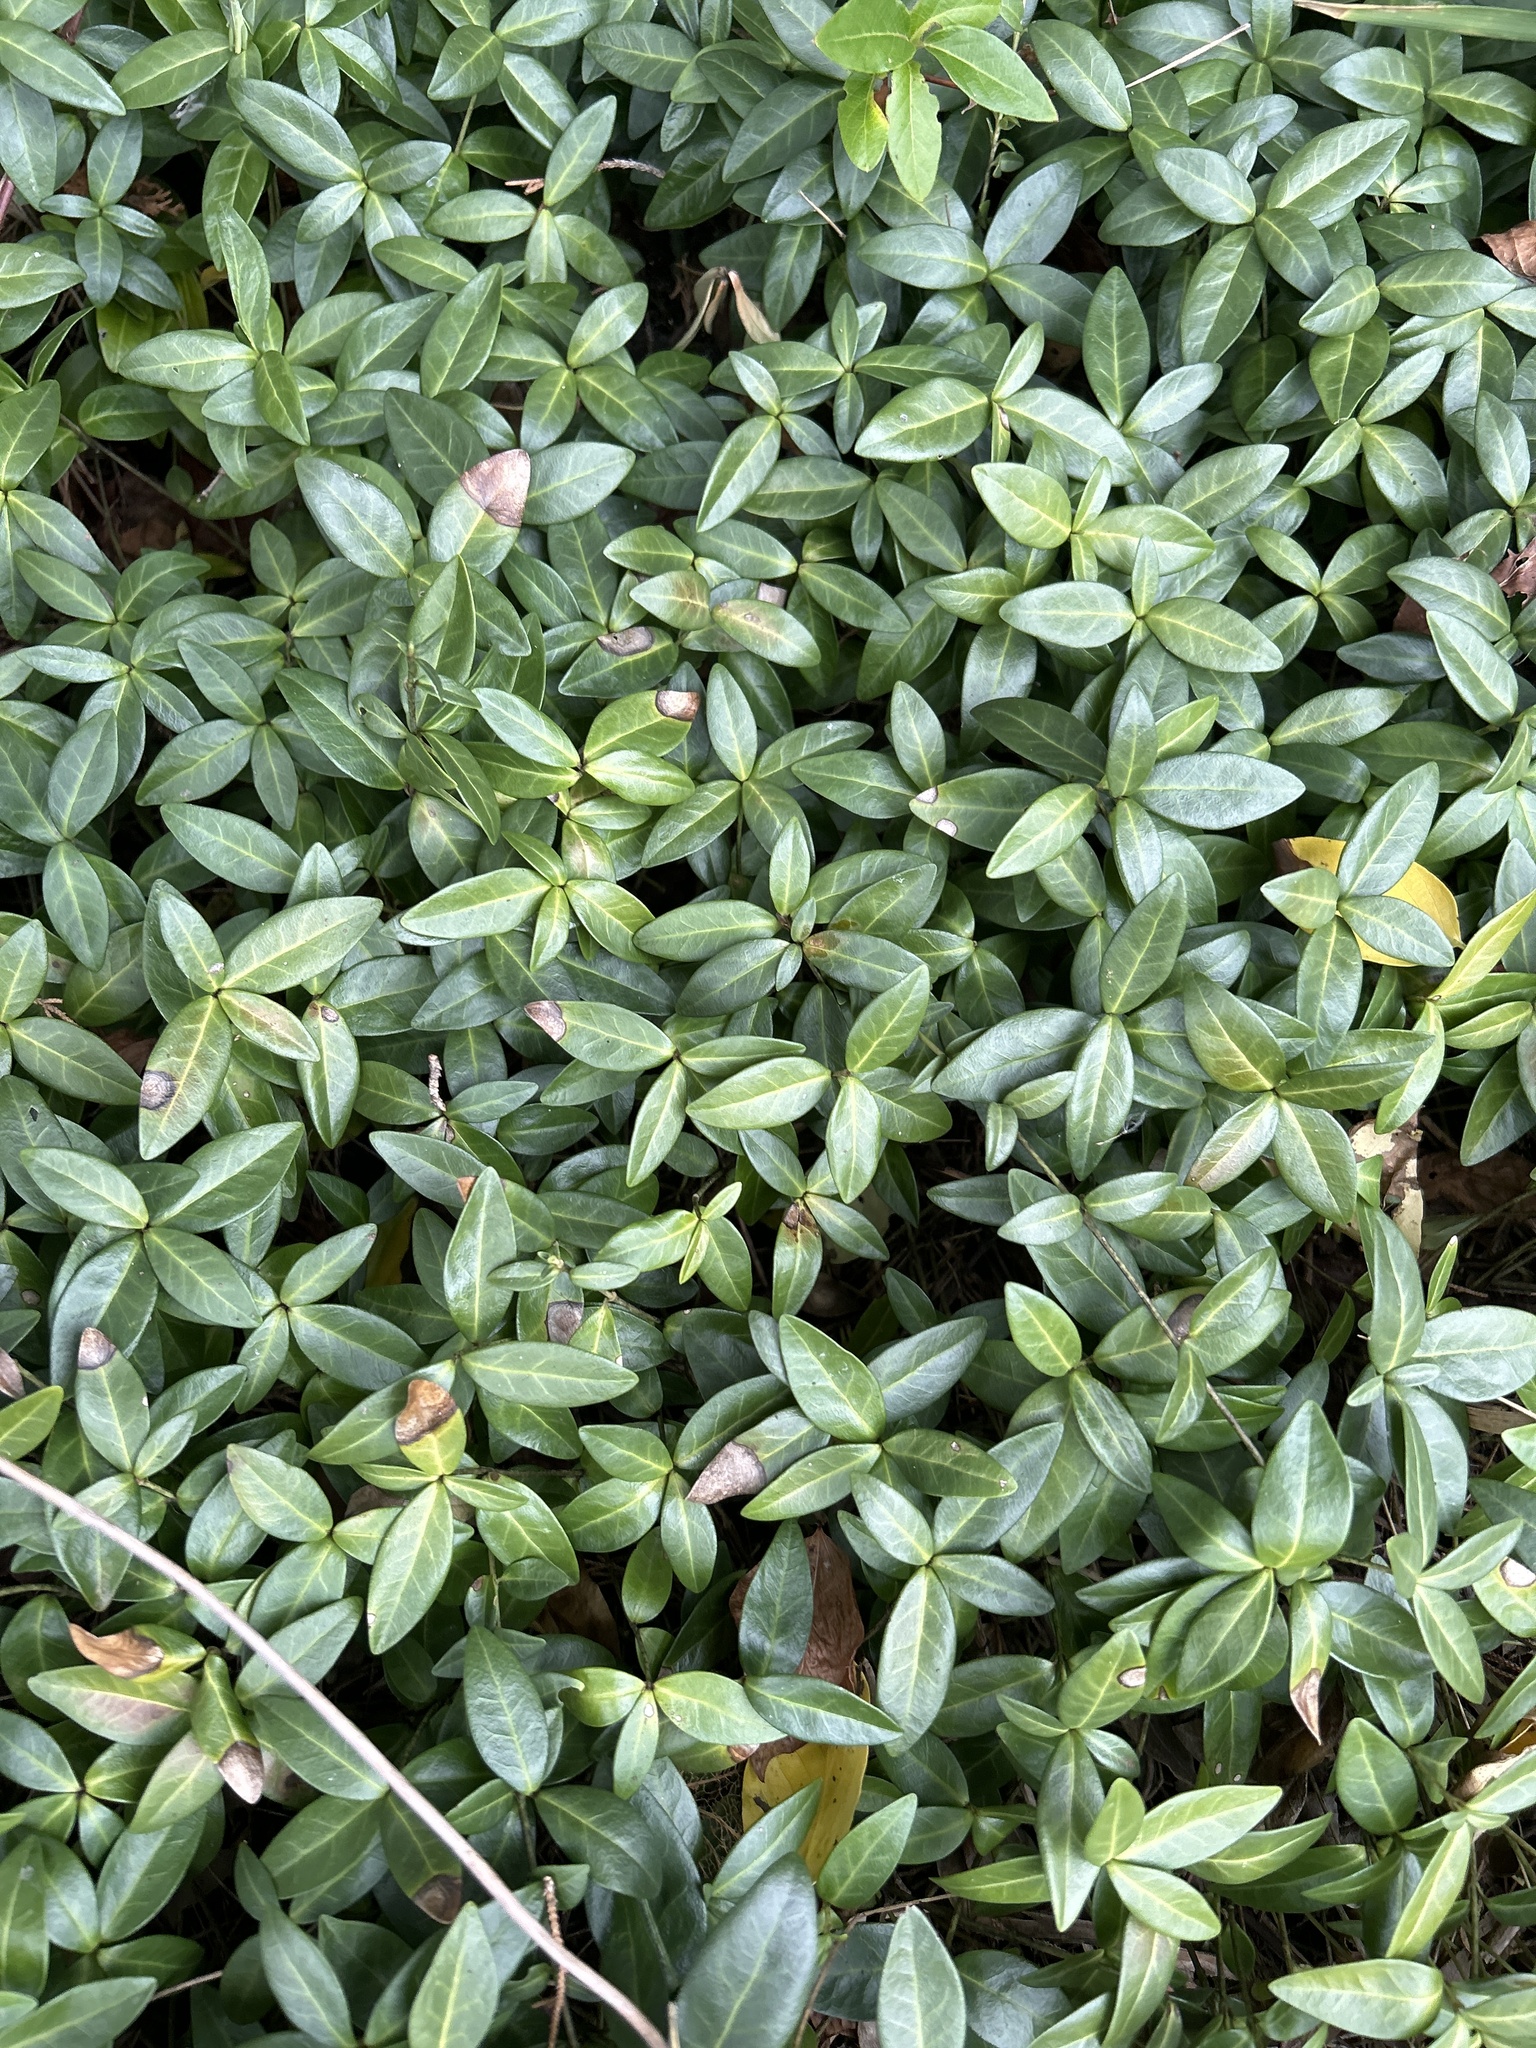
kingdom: Plantae
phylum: Tracheophyta
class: Magnoliopsida
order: Gentianales
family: Apocynaceae
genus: Vinca
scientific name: Vinca minor
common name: Lesser periwinkle
